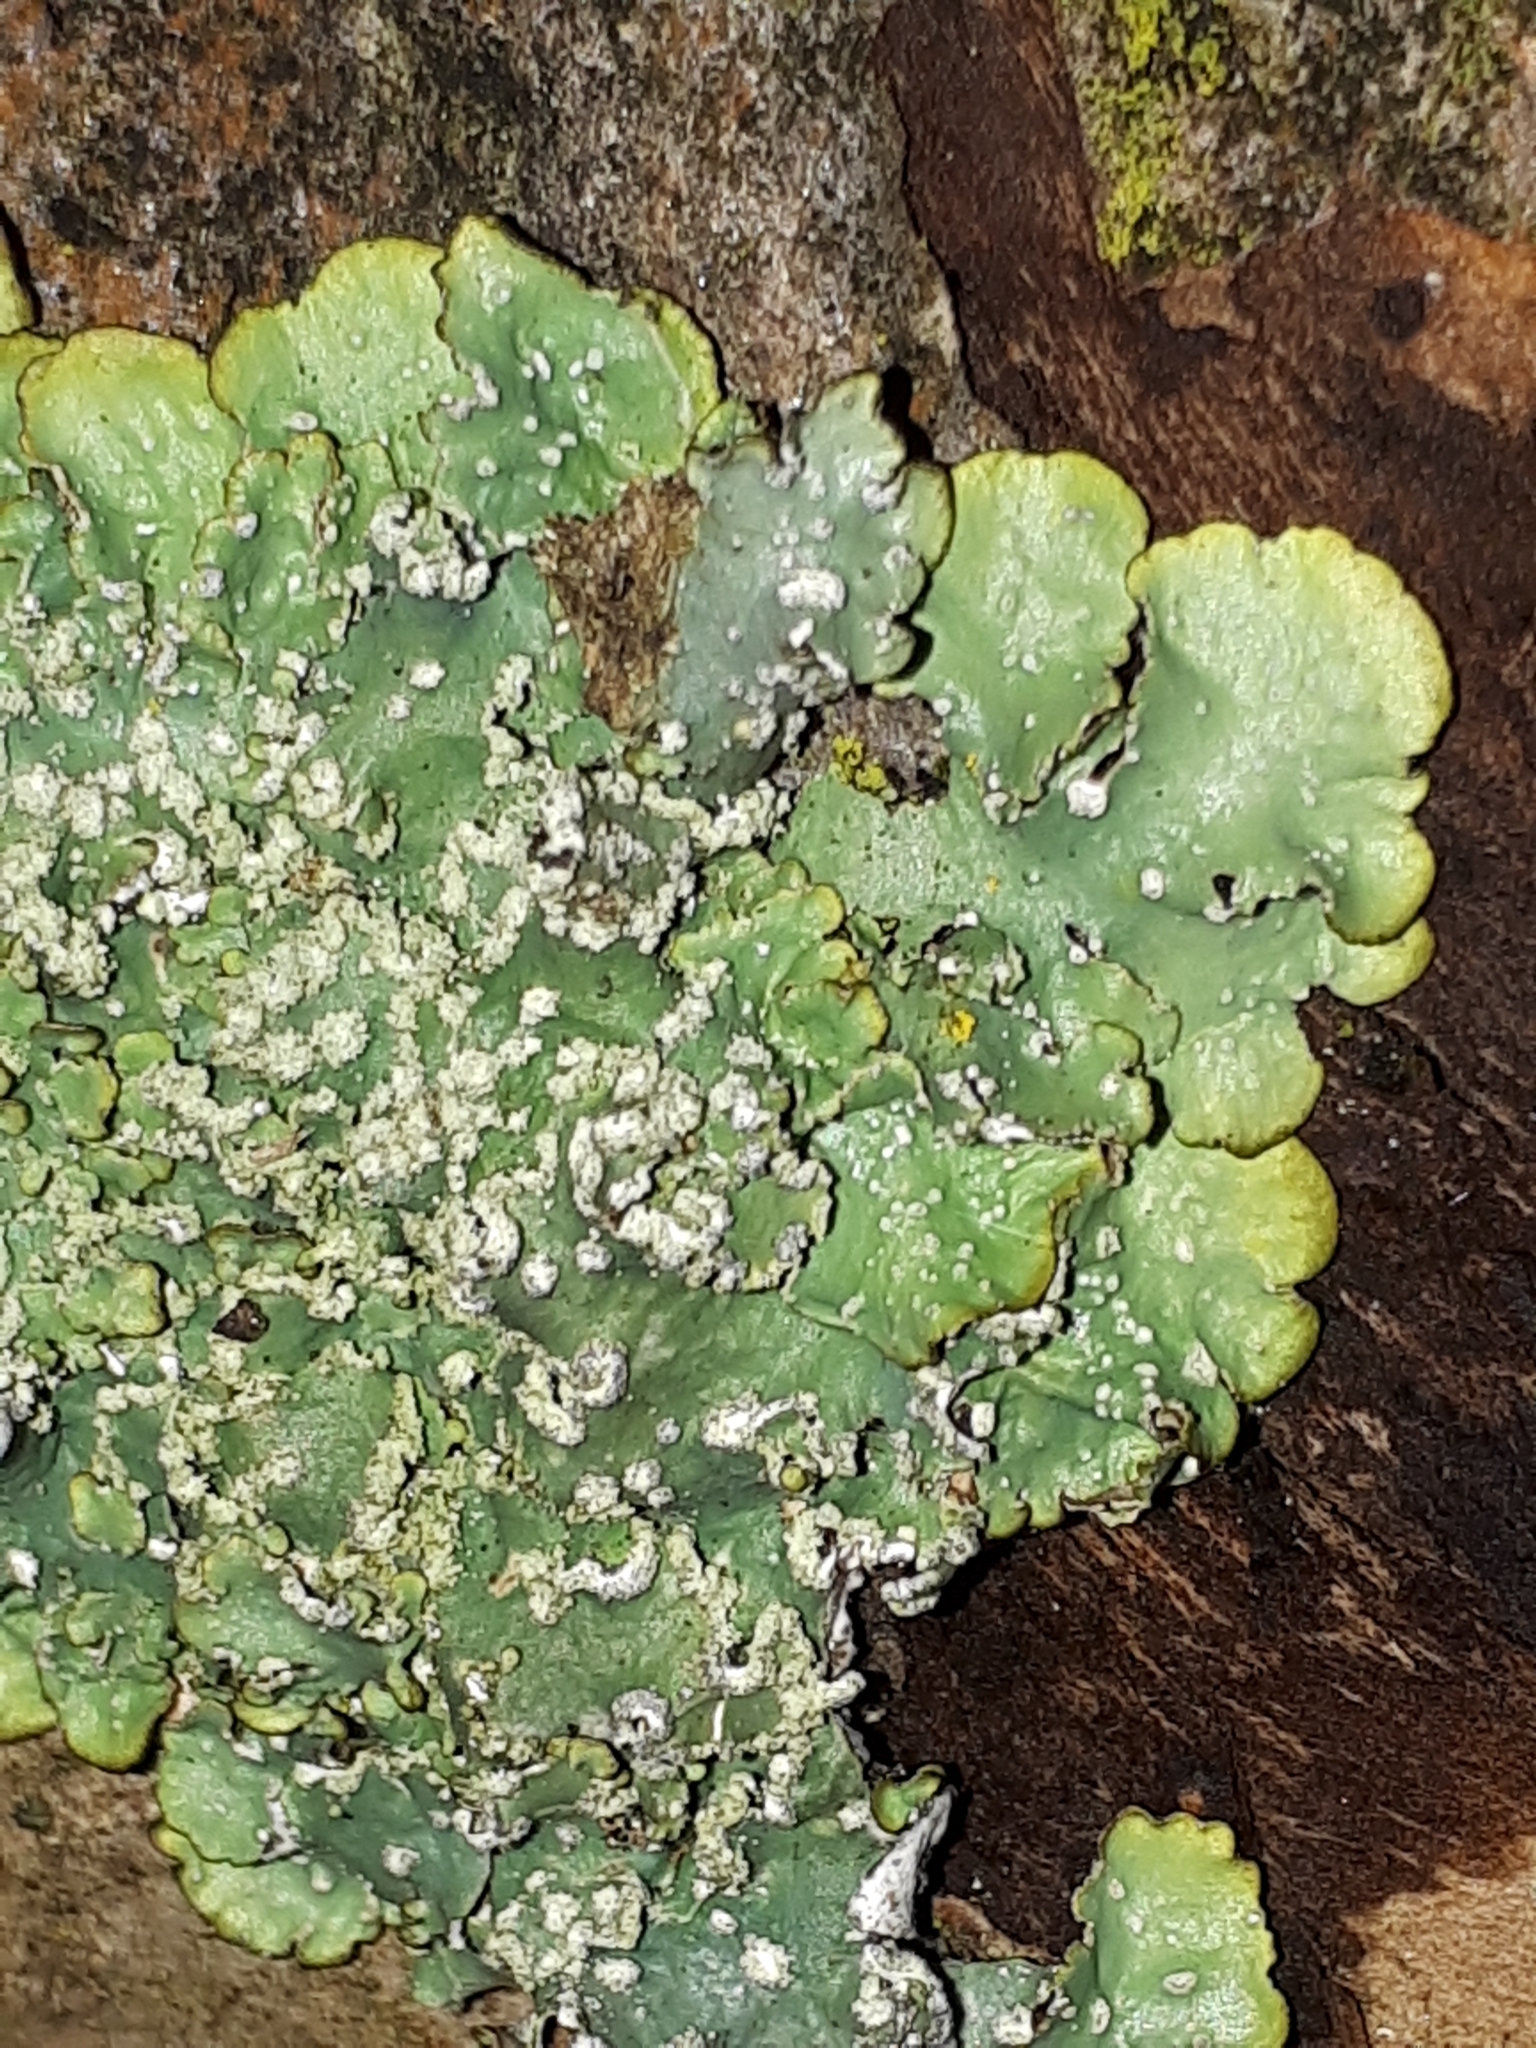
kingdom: Fungi
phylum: Ascomycota
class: Lecanoromycetes
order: Lecanorales
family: Parmeliaceae
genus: Punctelia
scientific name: Punctelia subrudecta
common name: Powdered speckled shield lichen
